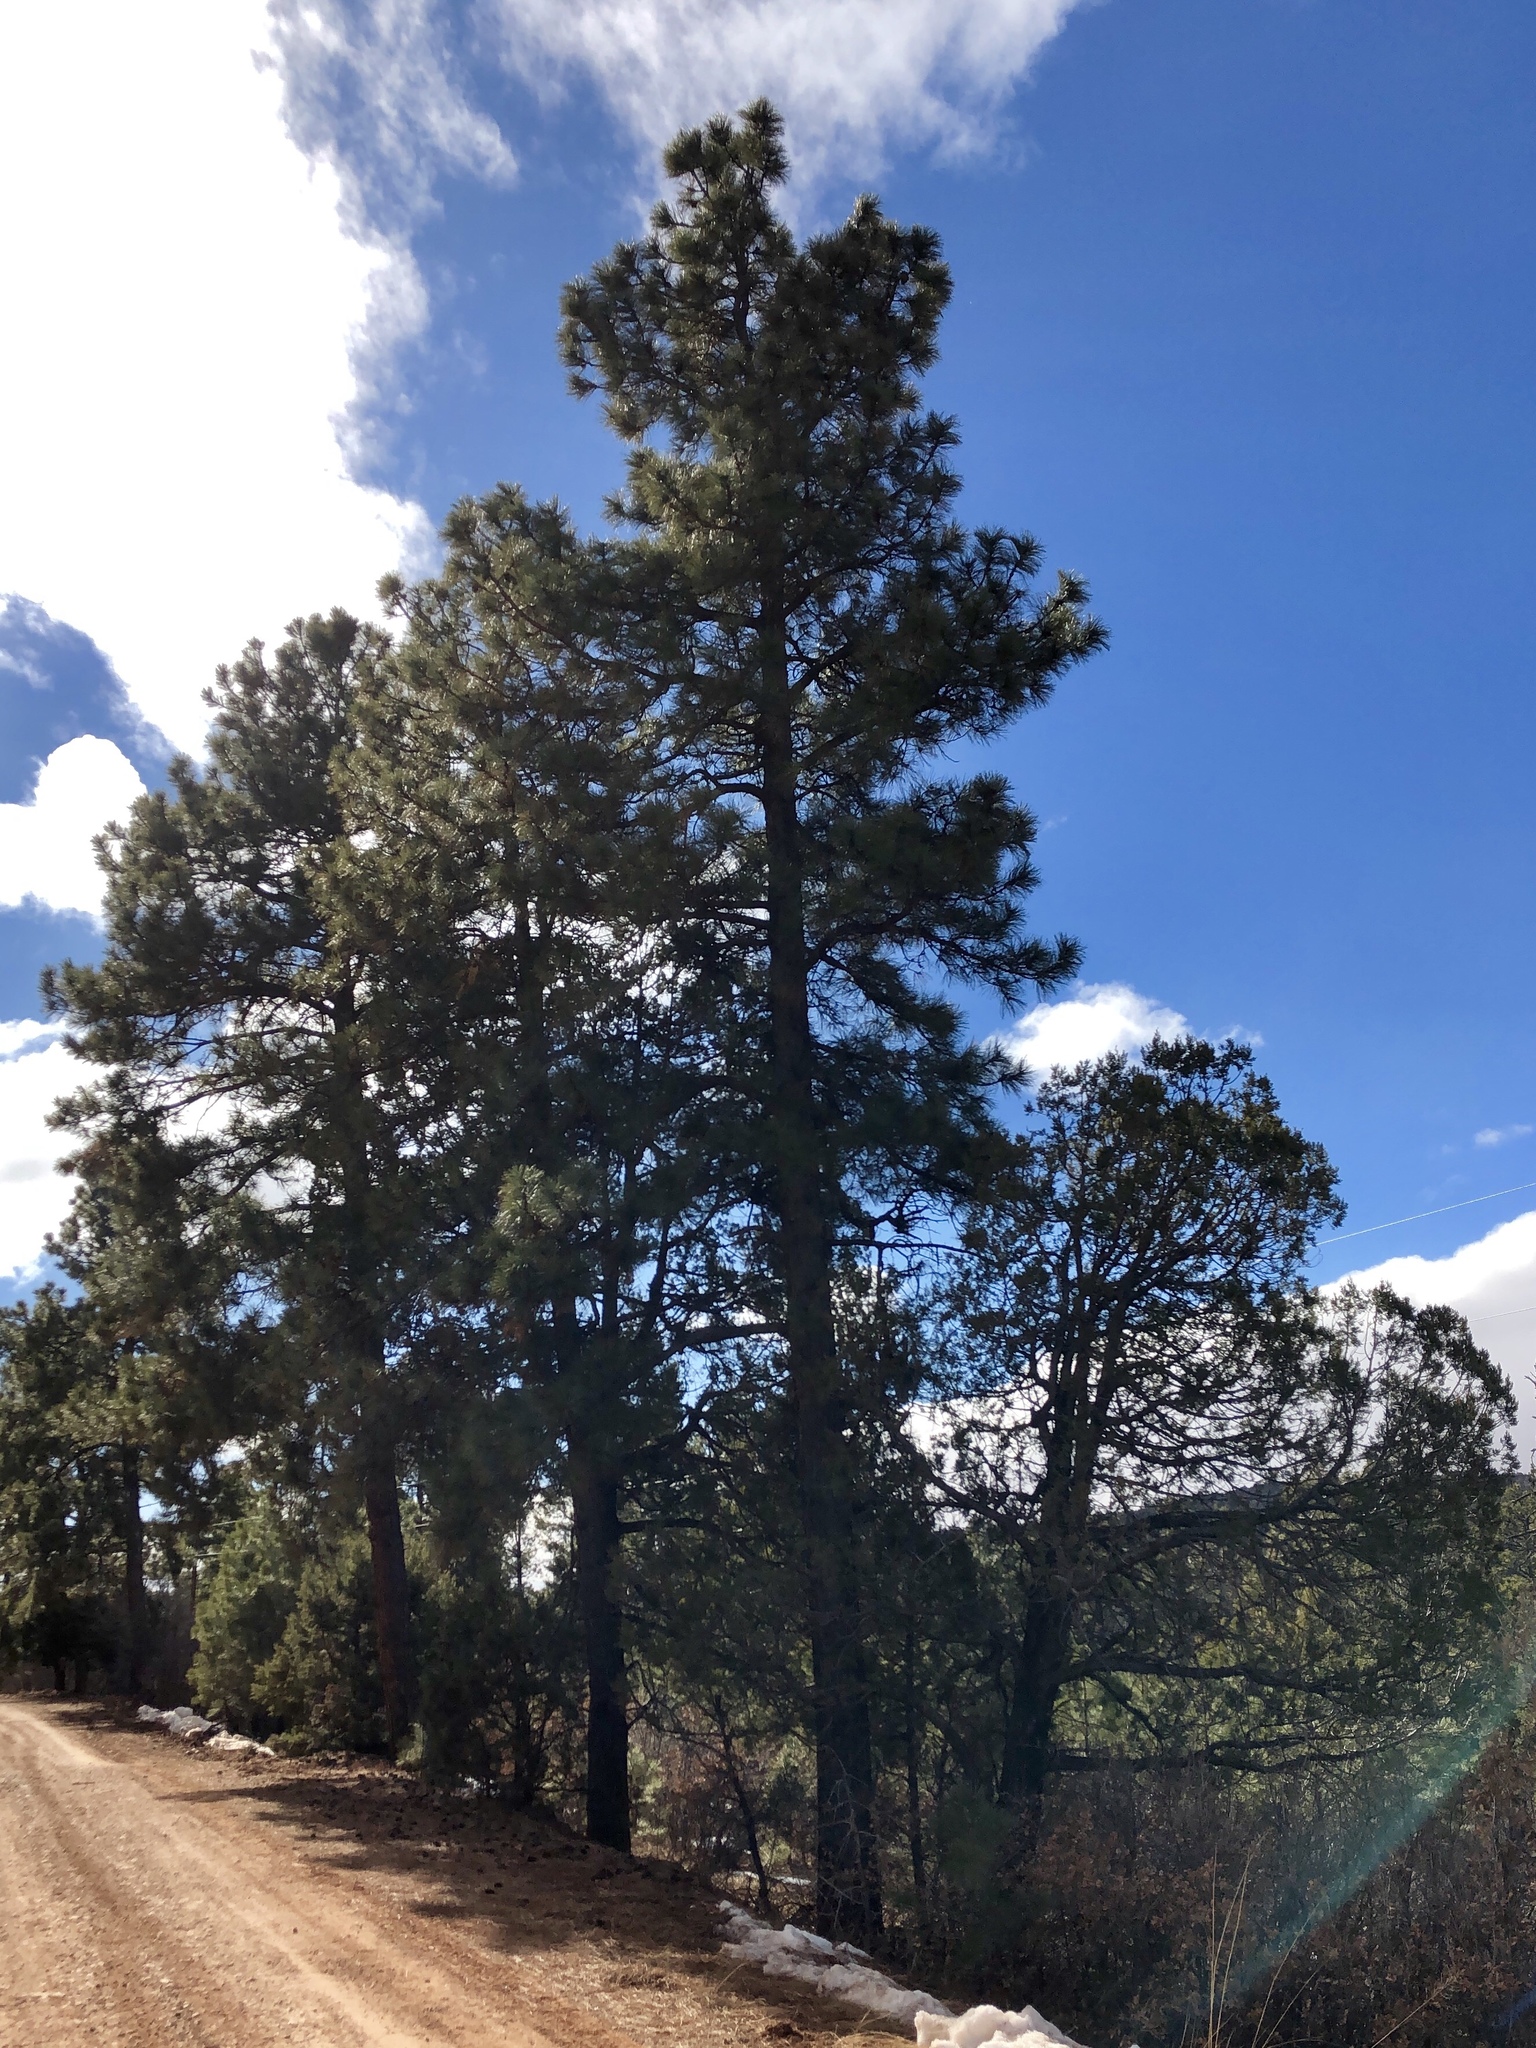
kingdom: Plantae
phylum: Tracheophyta
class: Pinopsida
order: Pinales
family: Pinaceae
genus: Pinus
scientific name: Pinus ponderosa
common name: Western yellow-pine
